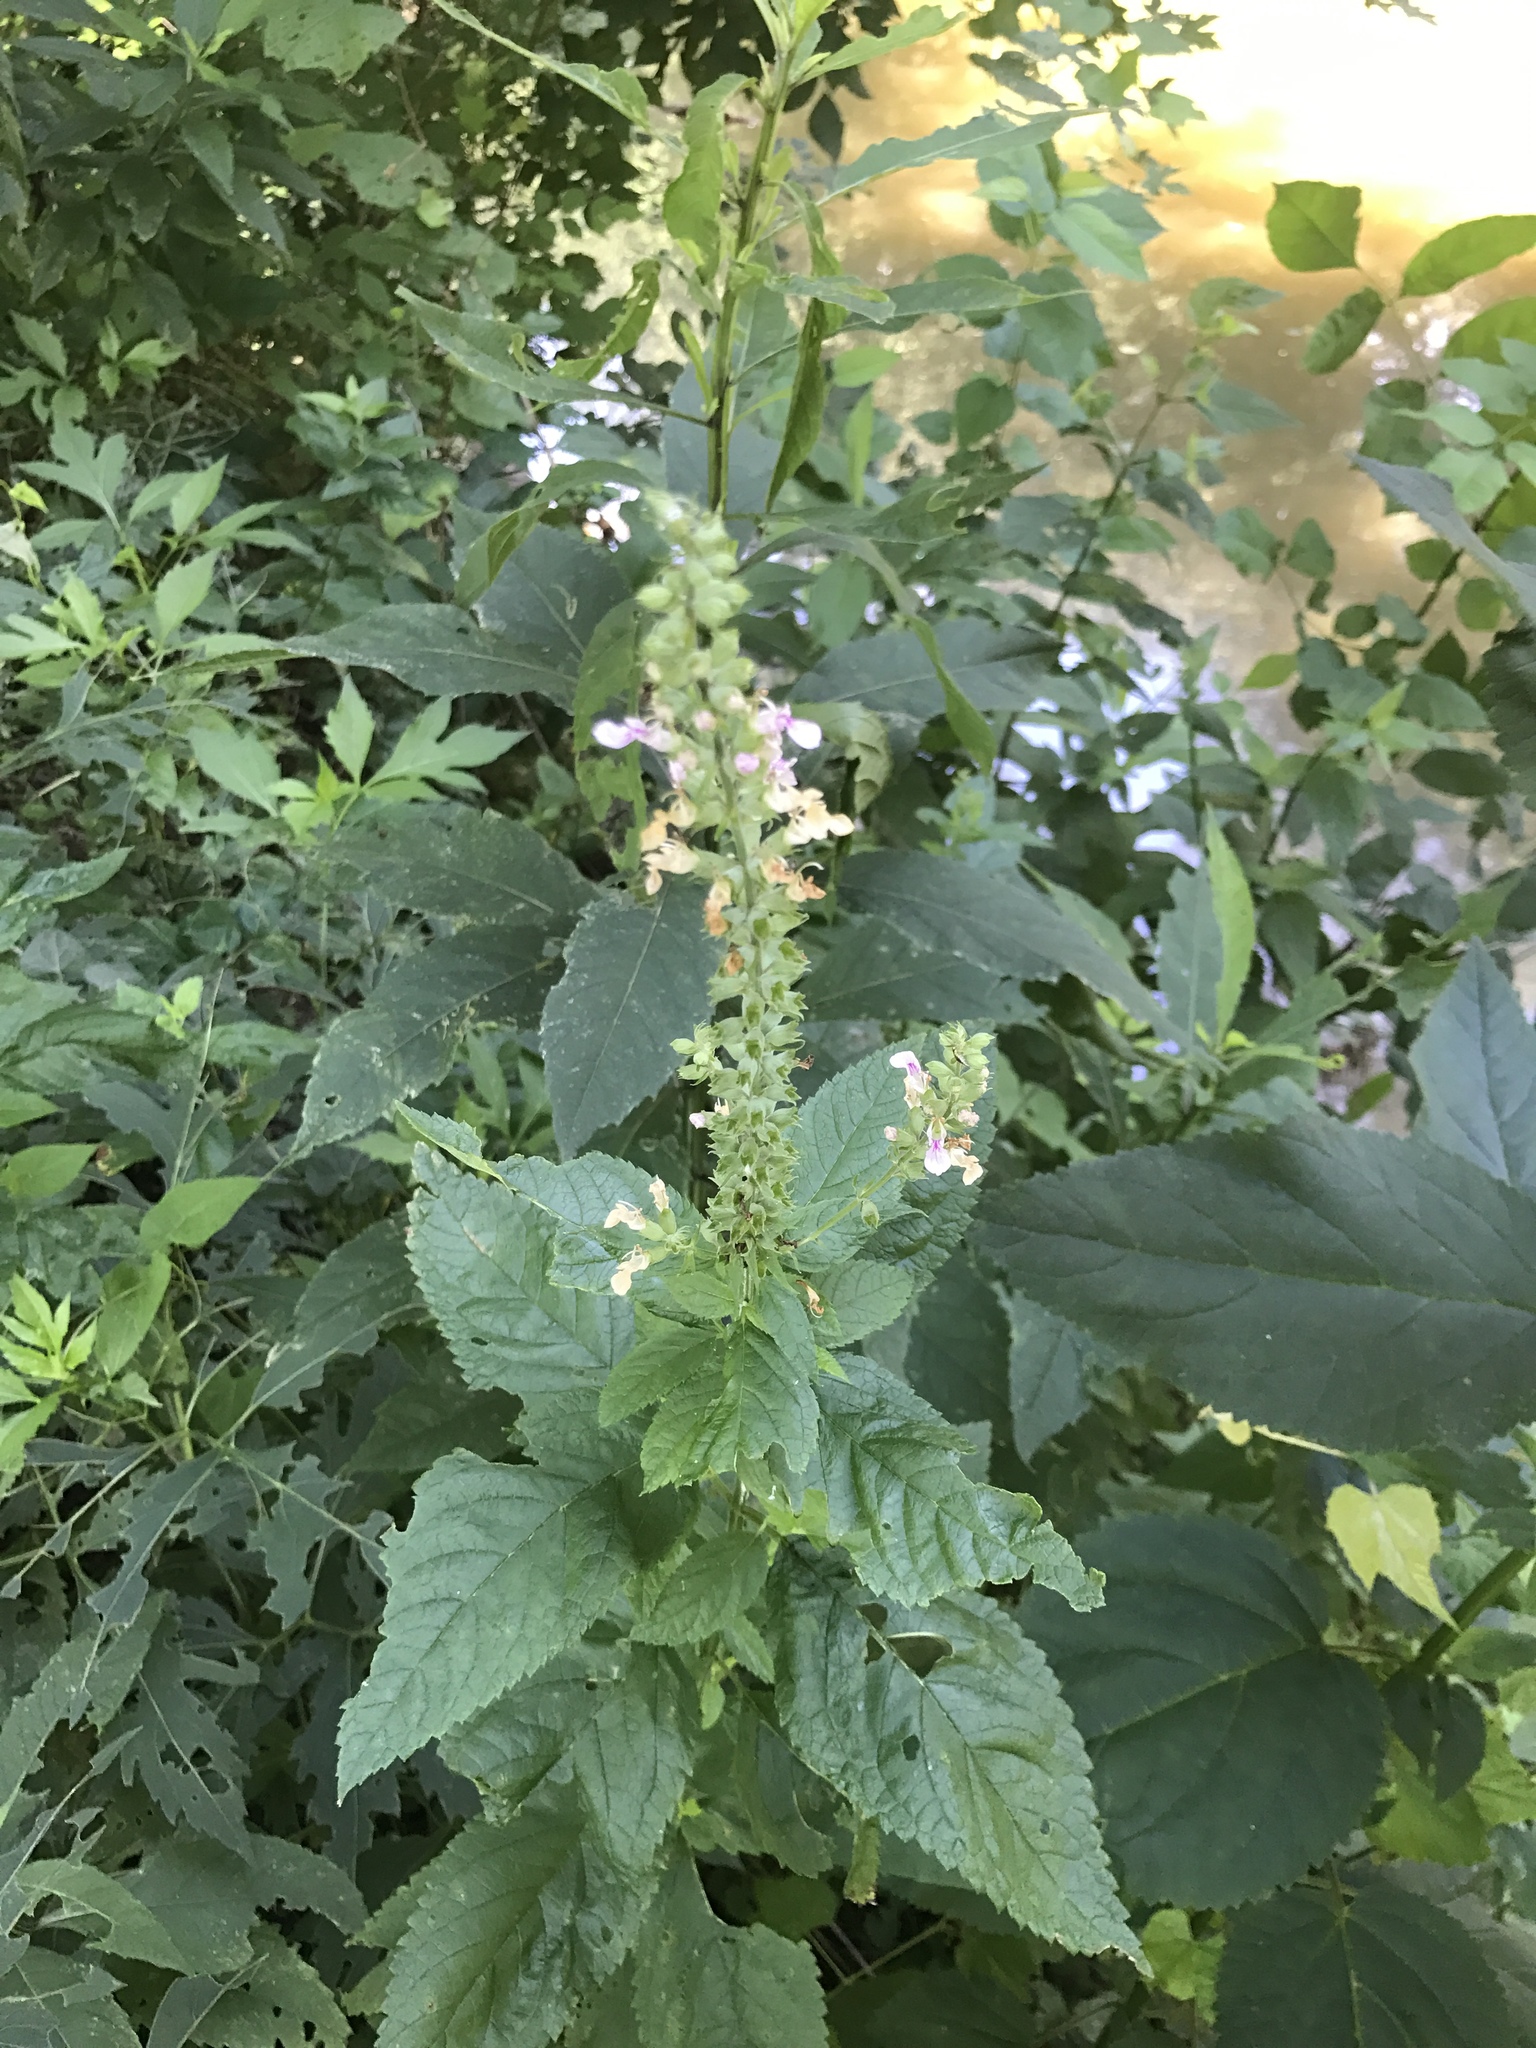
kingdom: Plantae
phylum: Tracheophyta
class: Magnoliopsida
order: Lamiales
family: Lamiaceae
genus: Teucrium
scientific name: Teucrium canadense
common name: American germander
